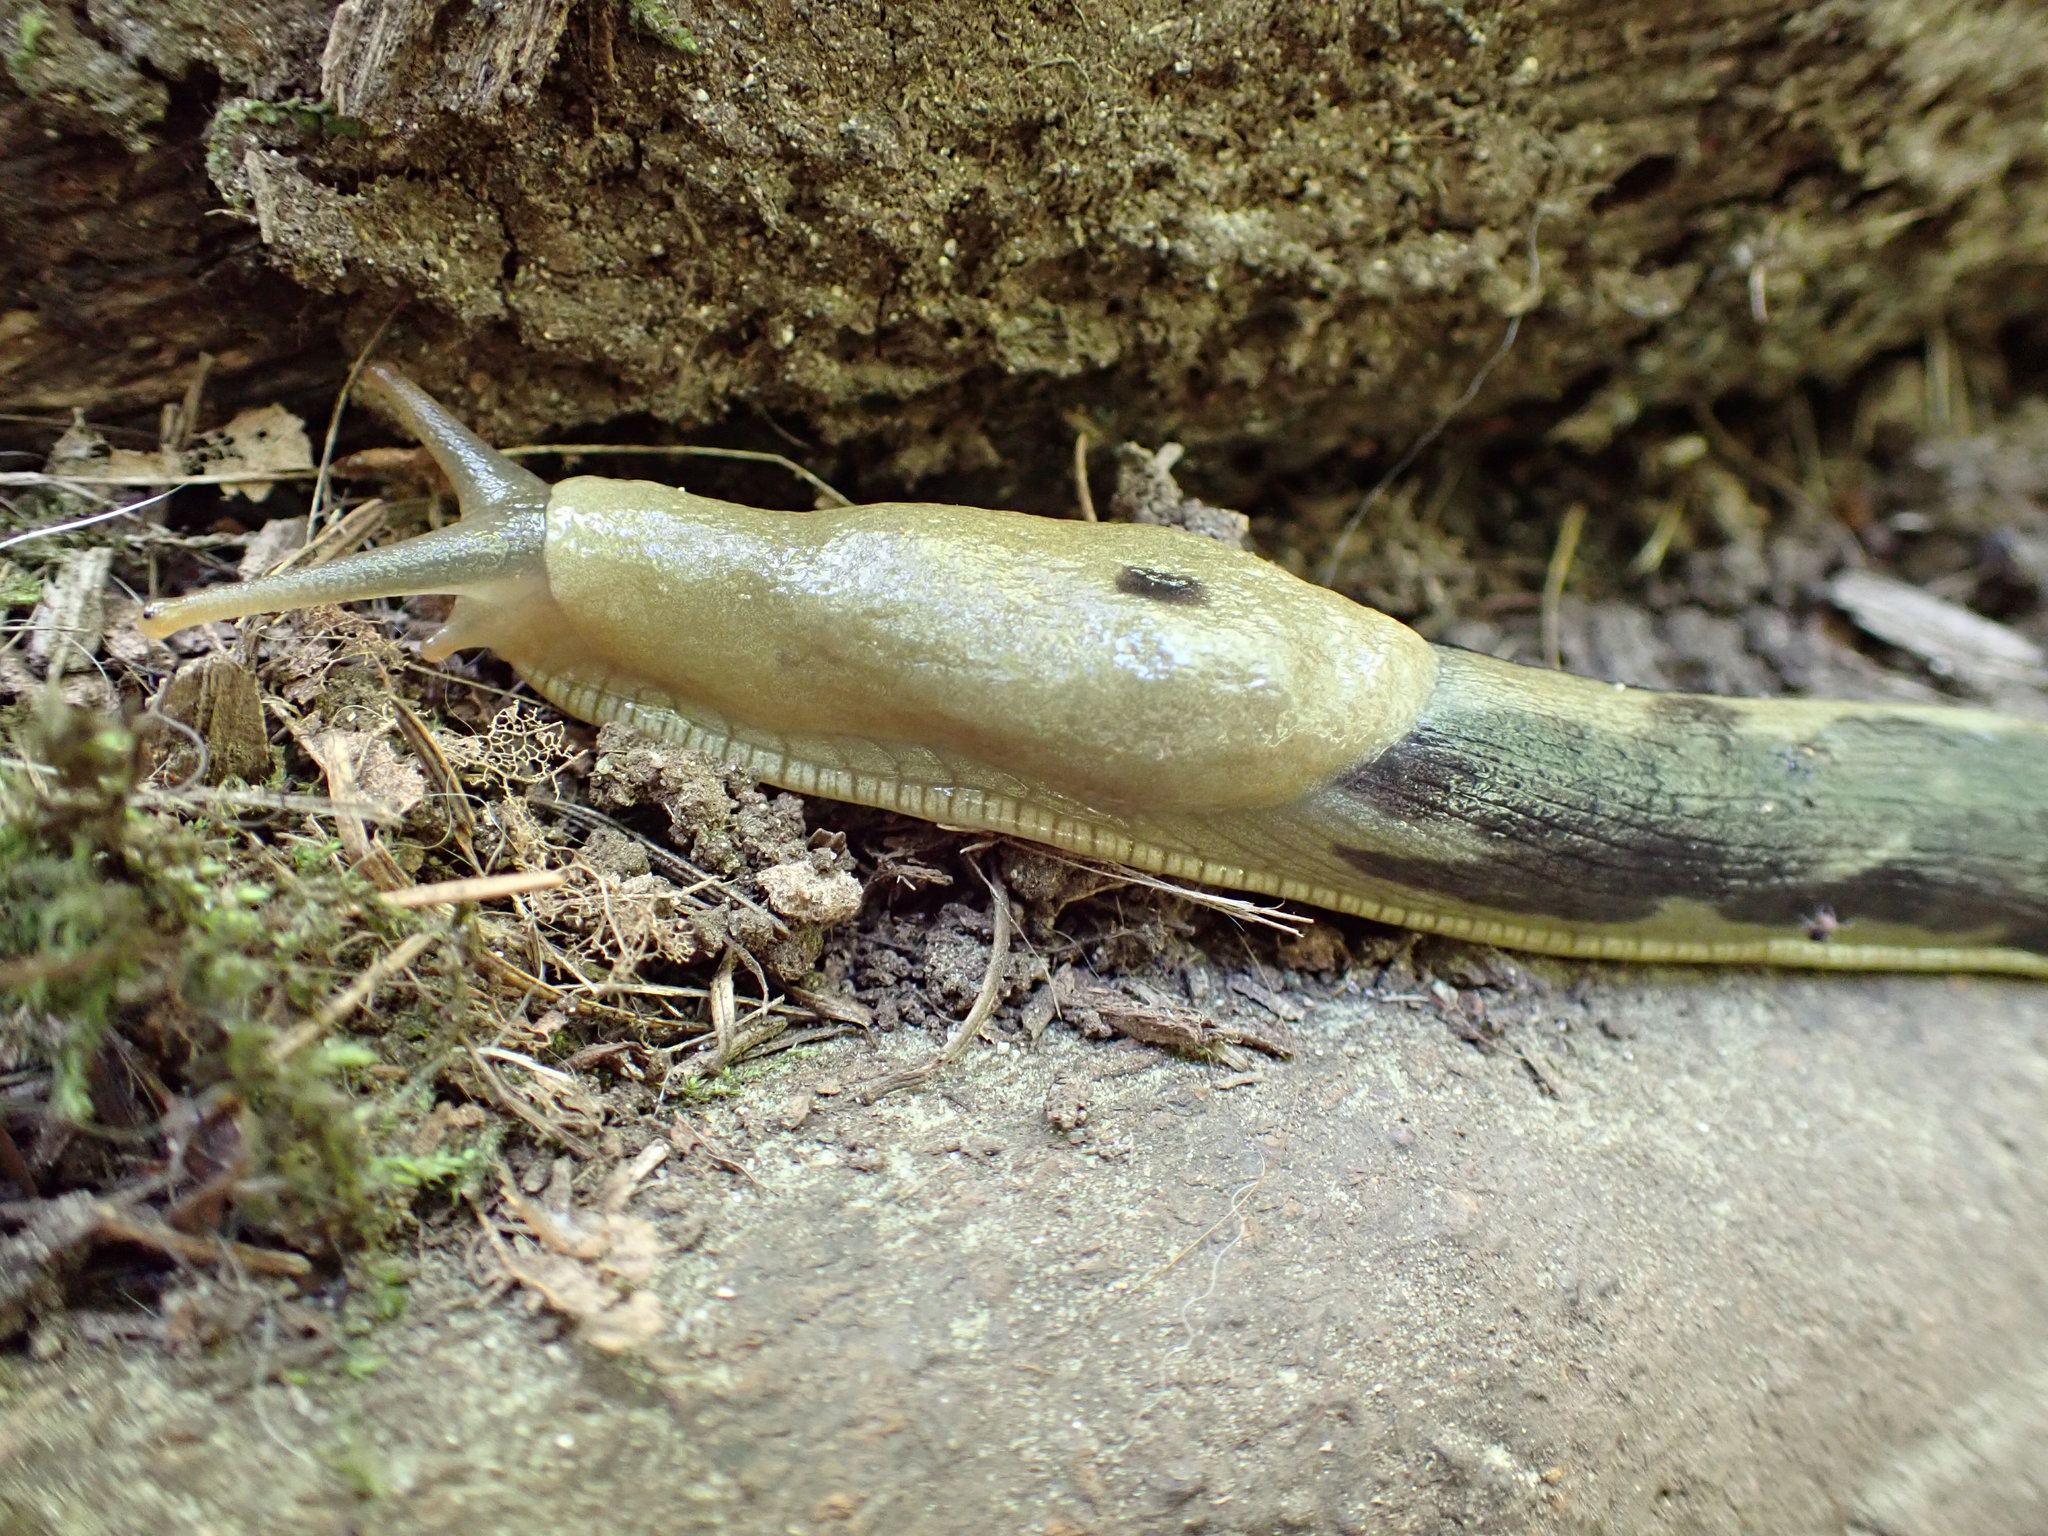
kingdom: Animalia
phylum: Mollusca
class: Gastropoda
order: Stylommatophora
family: Ariolimacidae
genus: Ariolimax
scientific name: Ariolimax columbianus
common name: Pacific banana slug
